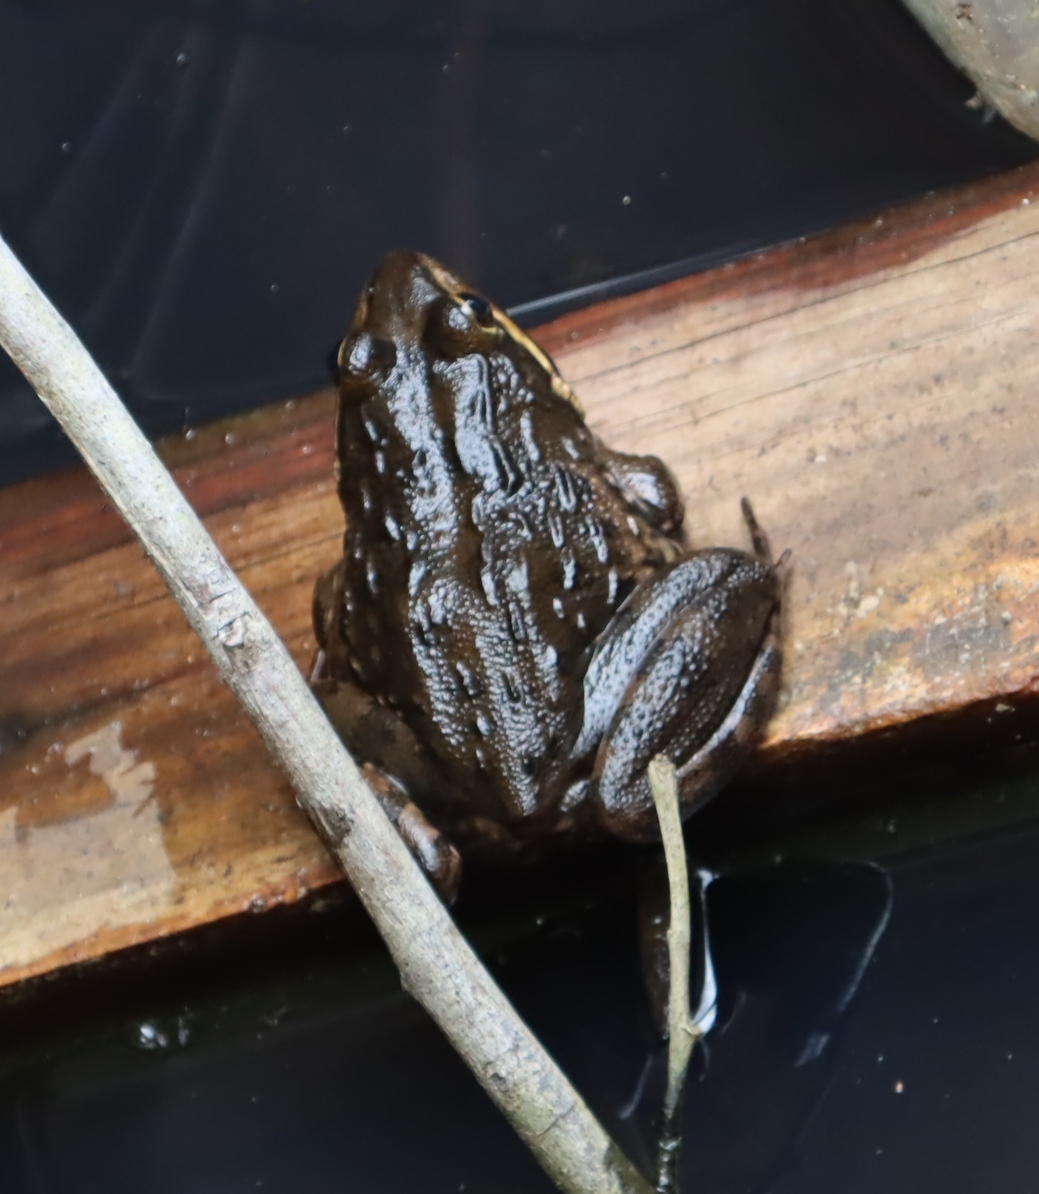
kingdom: Animalia
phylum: Chordata
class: Amphibia
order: Anura
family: Pyxicephalidae
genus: Amietia
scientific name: Amietia fuscigula
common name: Cape rana
